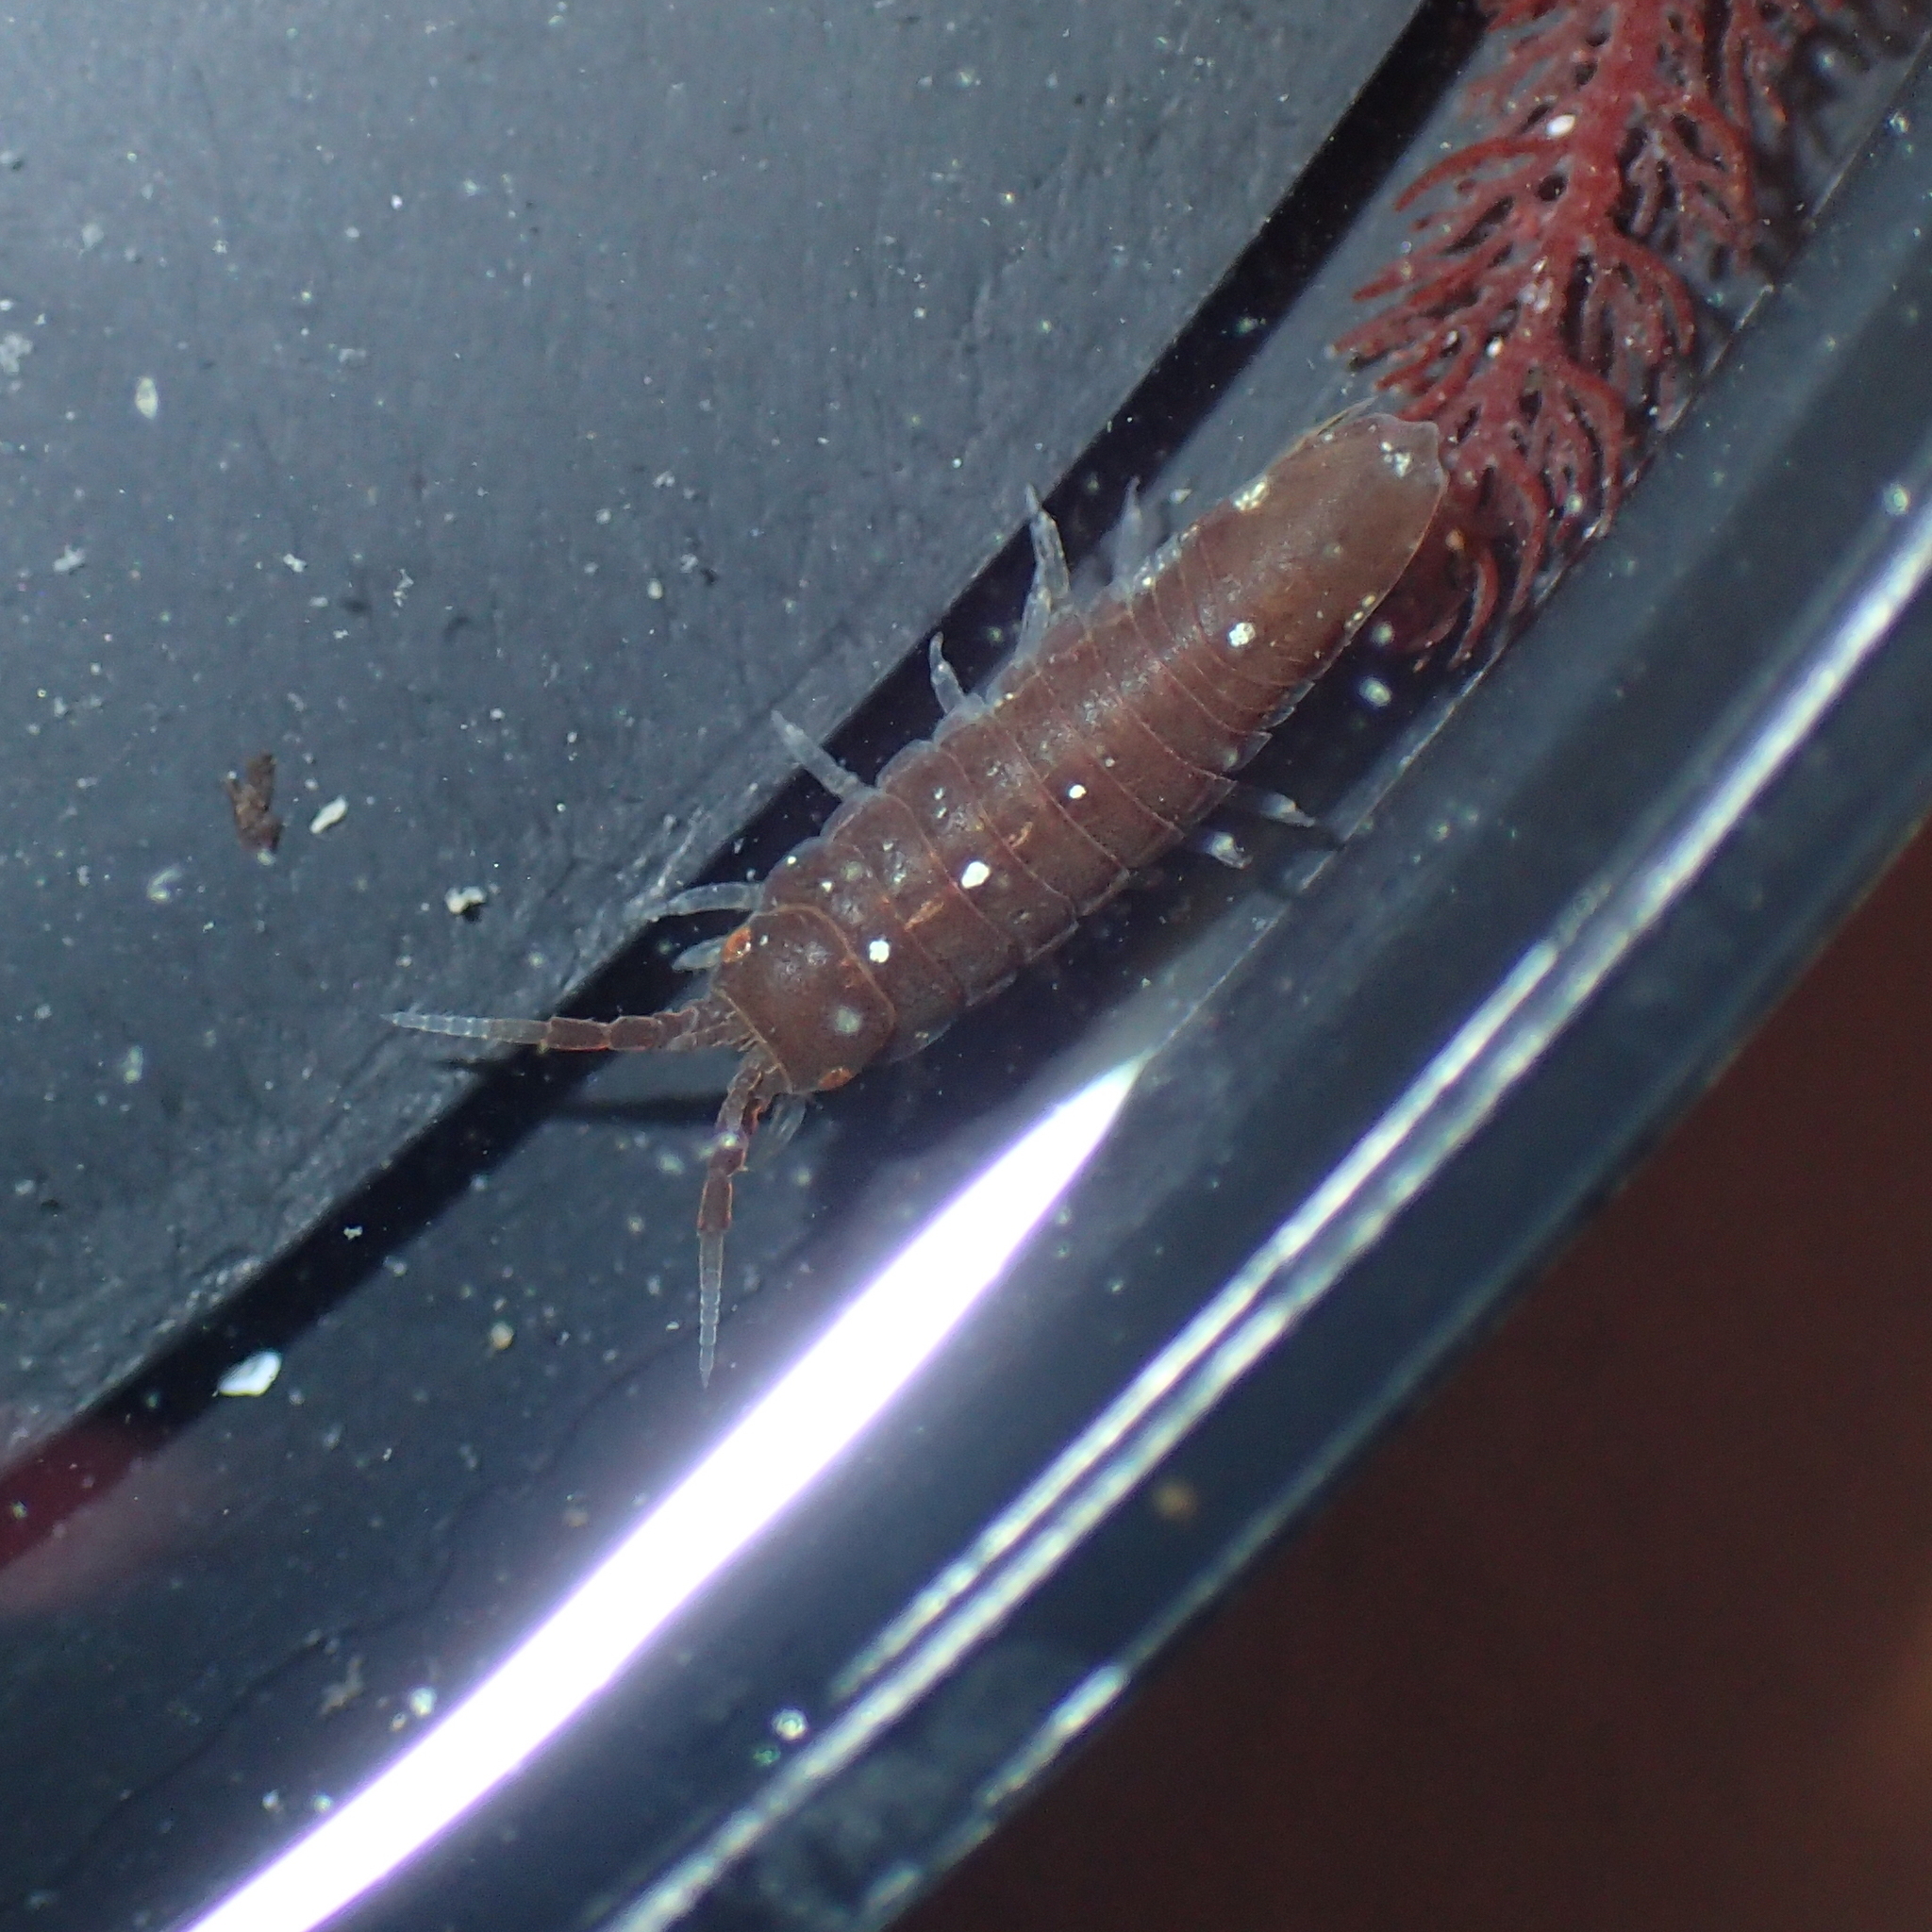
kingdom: Animalia
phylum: Arthropoda
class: Malacostraca
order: Isopoda
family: Idoteidae
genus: Idotea
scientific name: Idotea balthica
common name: Baltic isopod
